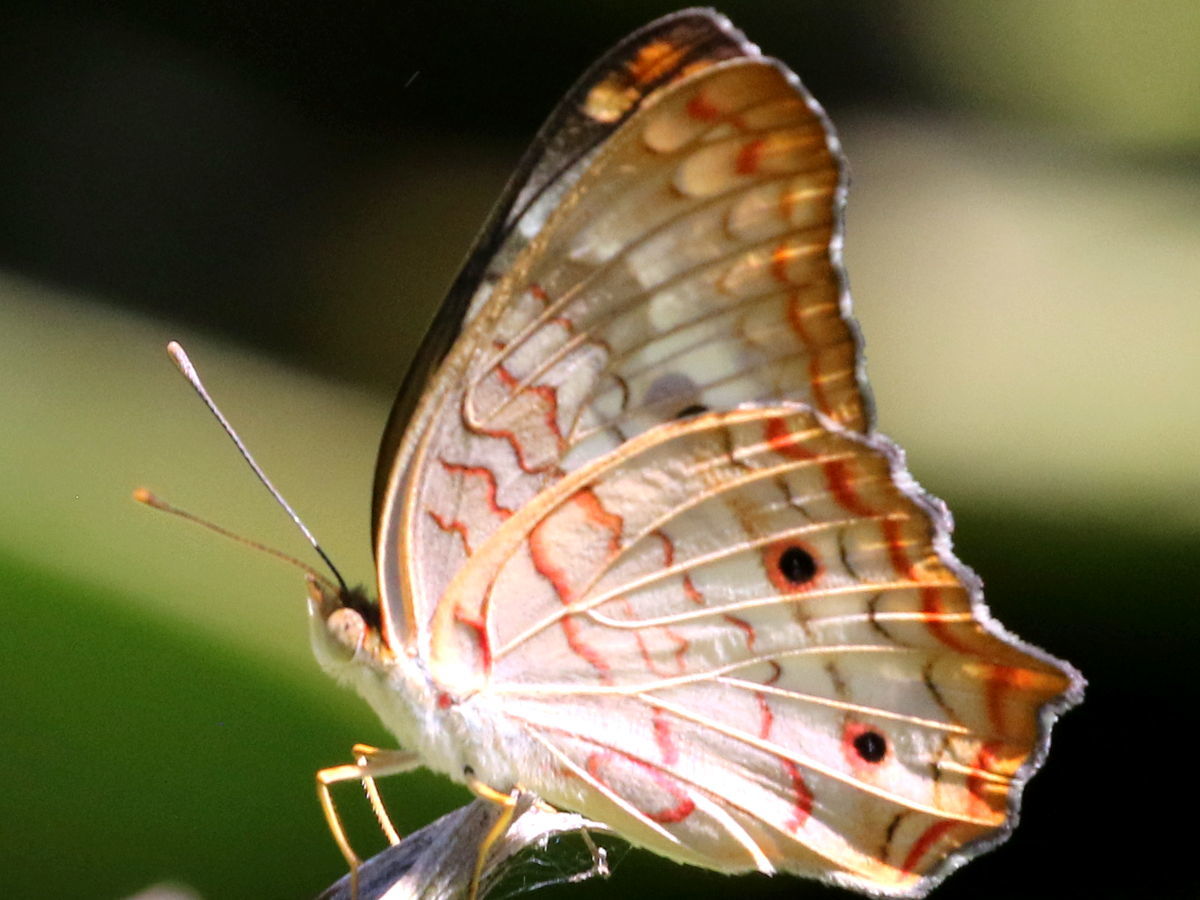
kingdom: Animalia
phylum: Arthropoda
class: Insecta
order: Lepidoptera
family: Nymphalidae
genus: Anartia
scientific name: Anartia jatrophae
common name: White peacock
